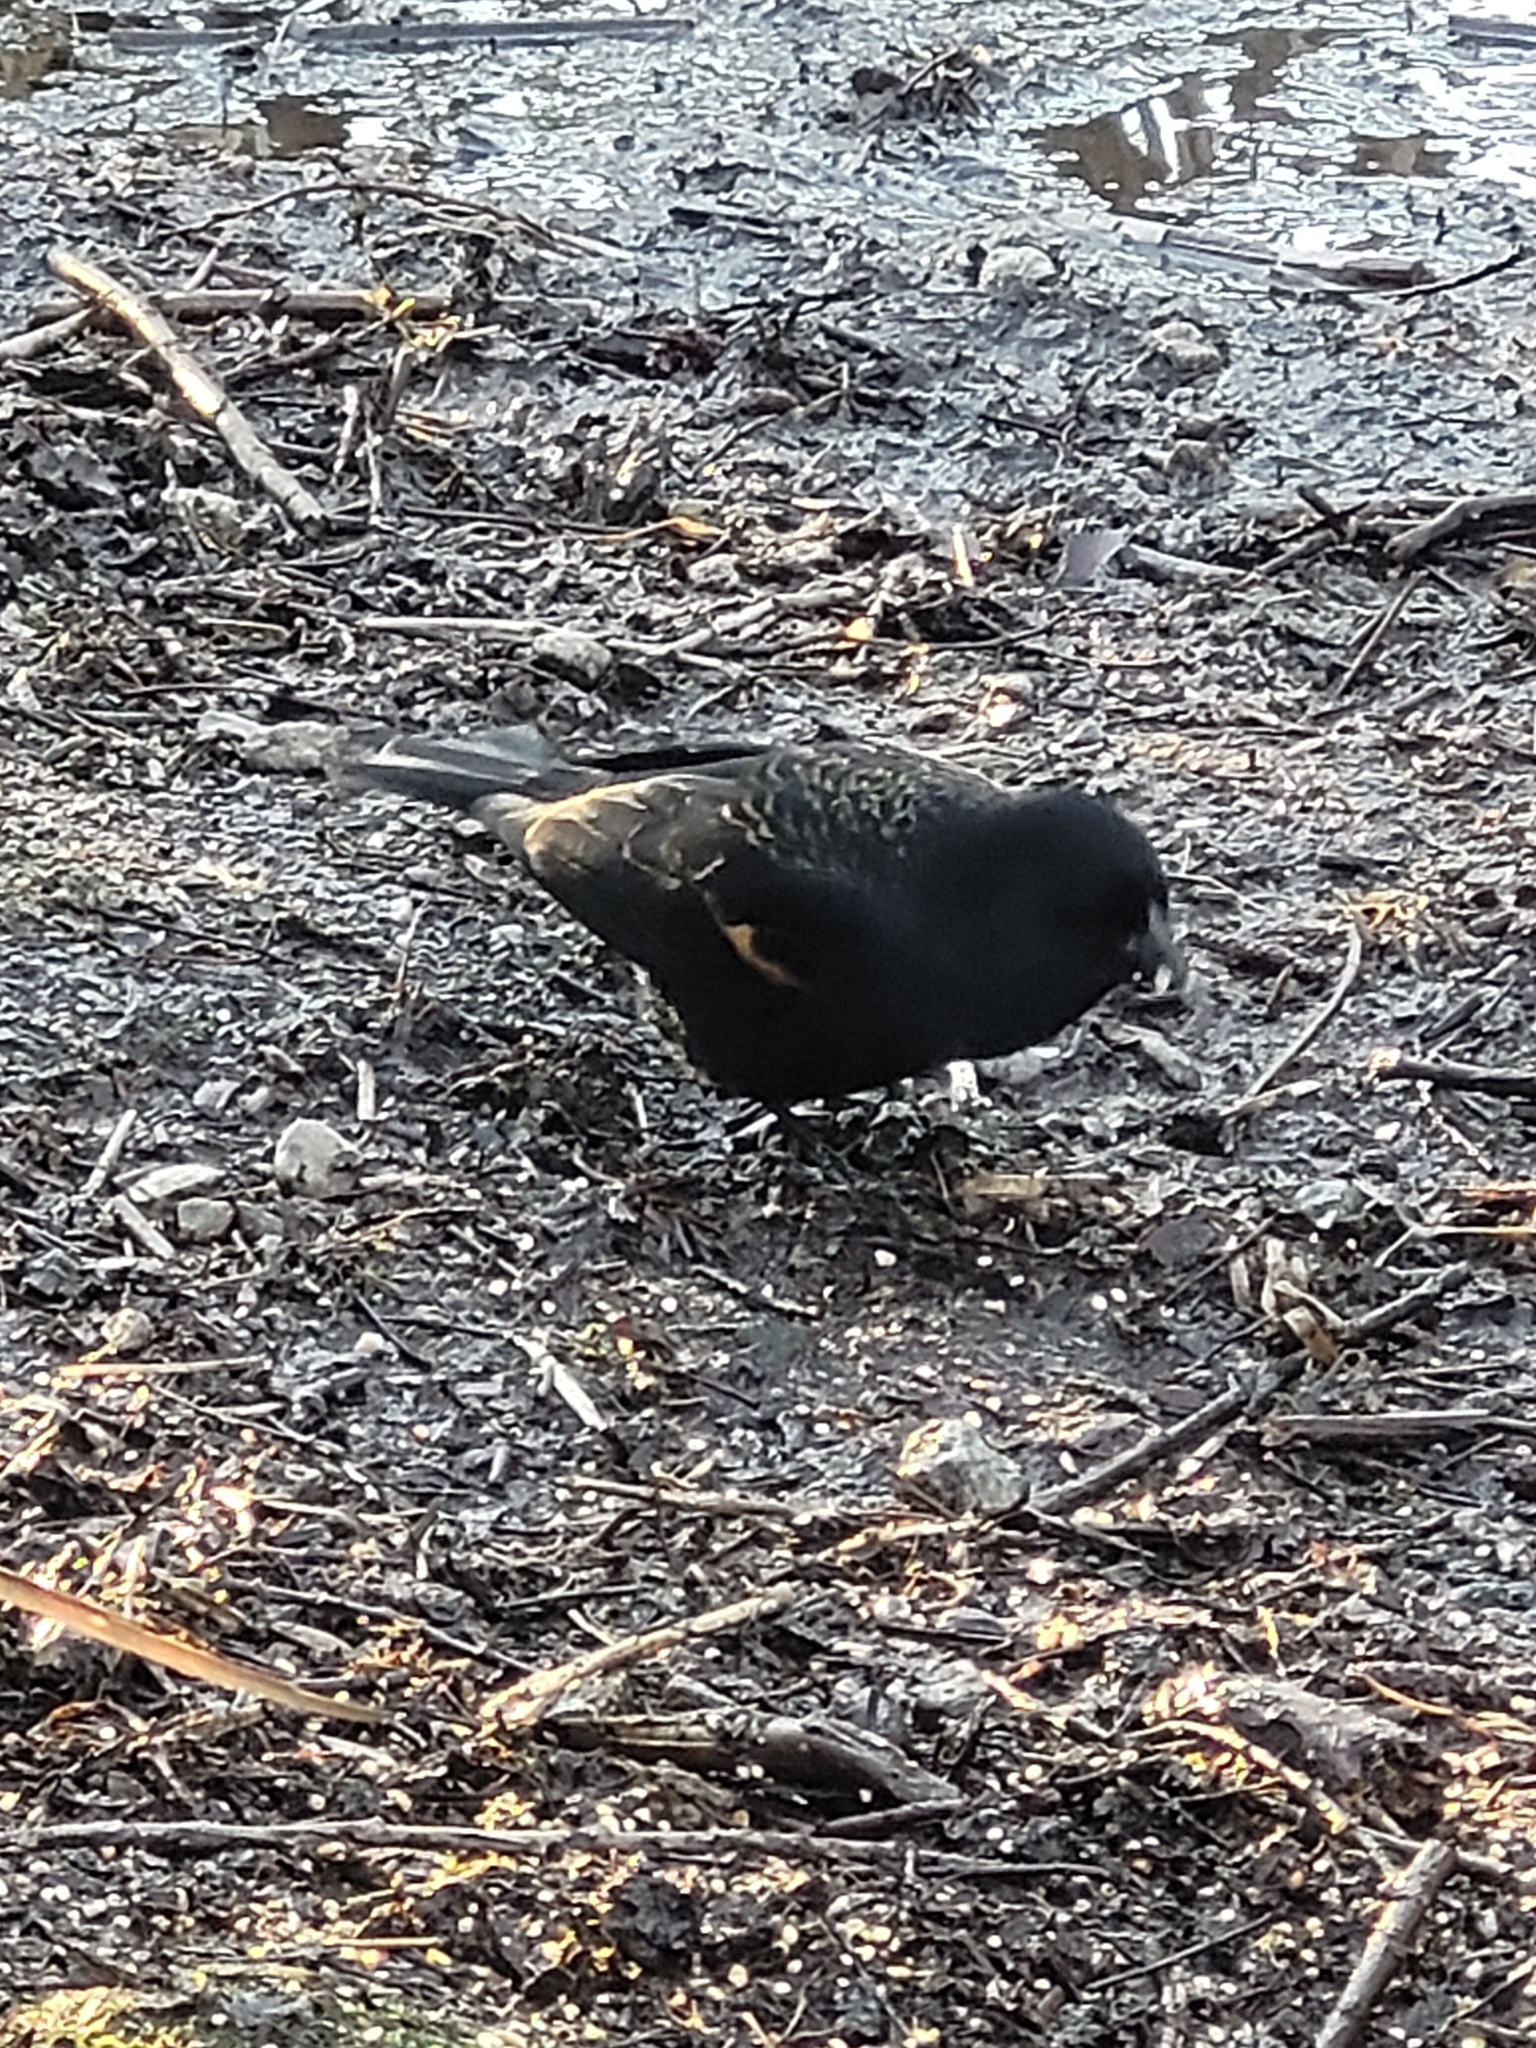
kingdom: Animalia
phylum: Chordata
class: Aves
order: Passeriformes
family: Icteridae
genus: Agelaius
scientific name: Agelaius phoeniceus
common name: Red-winged blackbird
